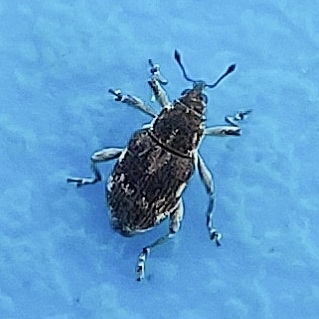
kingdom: Animalia
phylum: Arthropoda
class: Insecta
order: Coleoptera
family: Curculionidae
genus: Rhinoncus
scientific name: Rhinoncus albicinctus
